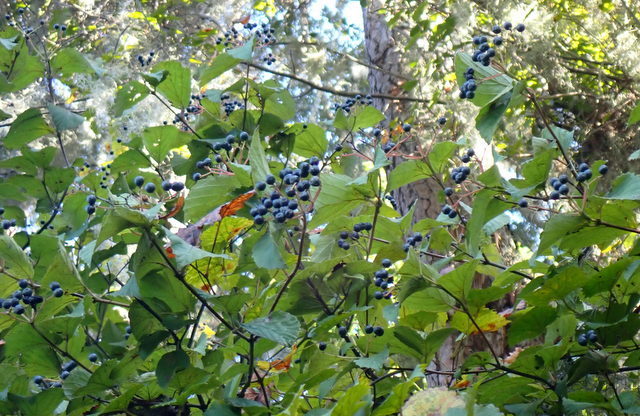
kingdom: Plantae
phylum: Tracheophyta
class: Magnoliopsida
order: Dipsacales
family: Viburnaceae
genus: Viburnum
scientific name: Viburnum scabrellum
